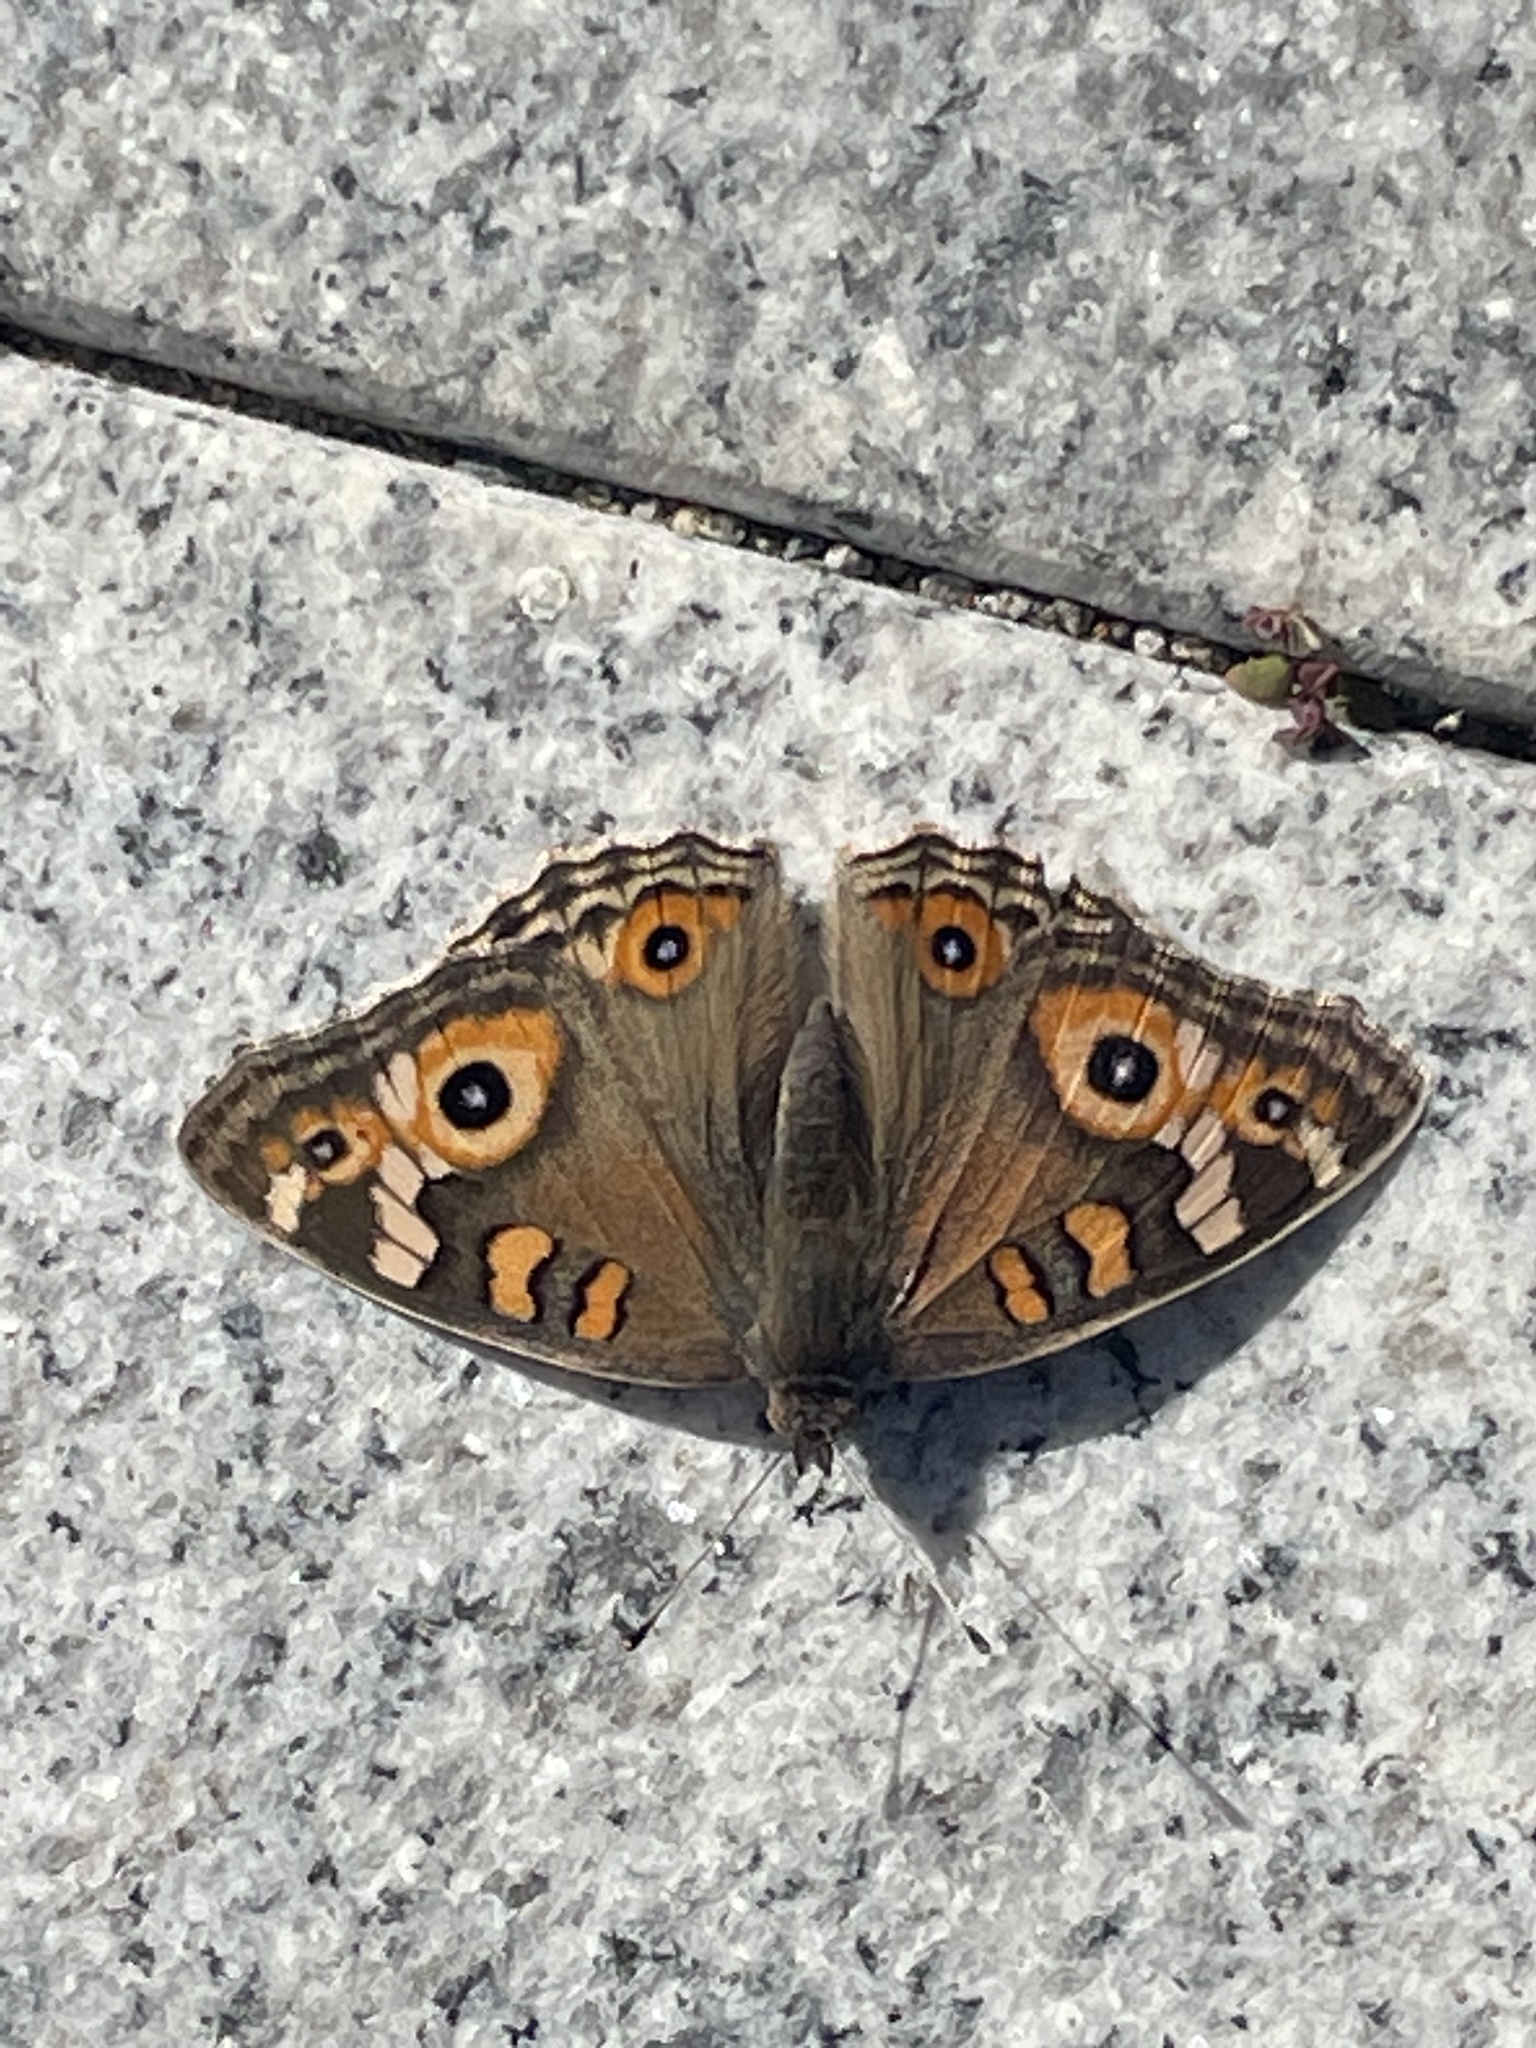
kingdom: Animalia
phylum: Arthropoda
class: Insecta
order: Lepidoptera
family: Nymphalidae
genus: Junonia
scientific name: Junonia villida
